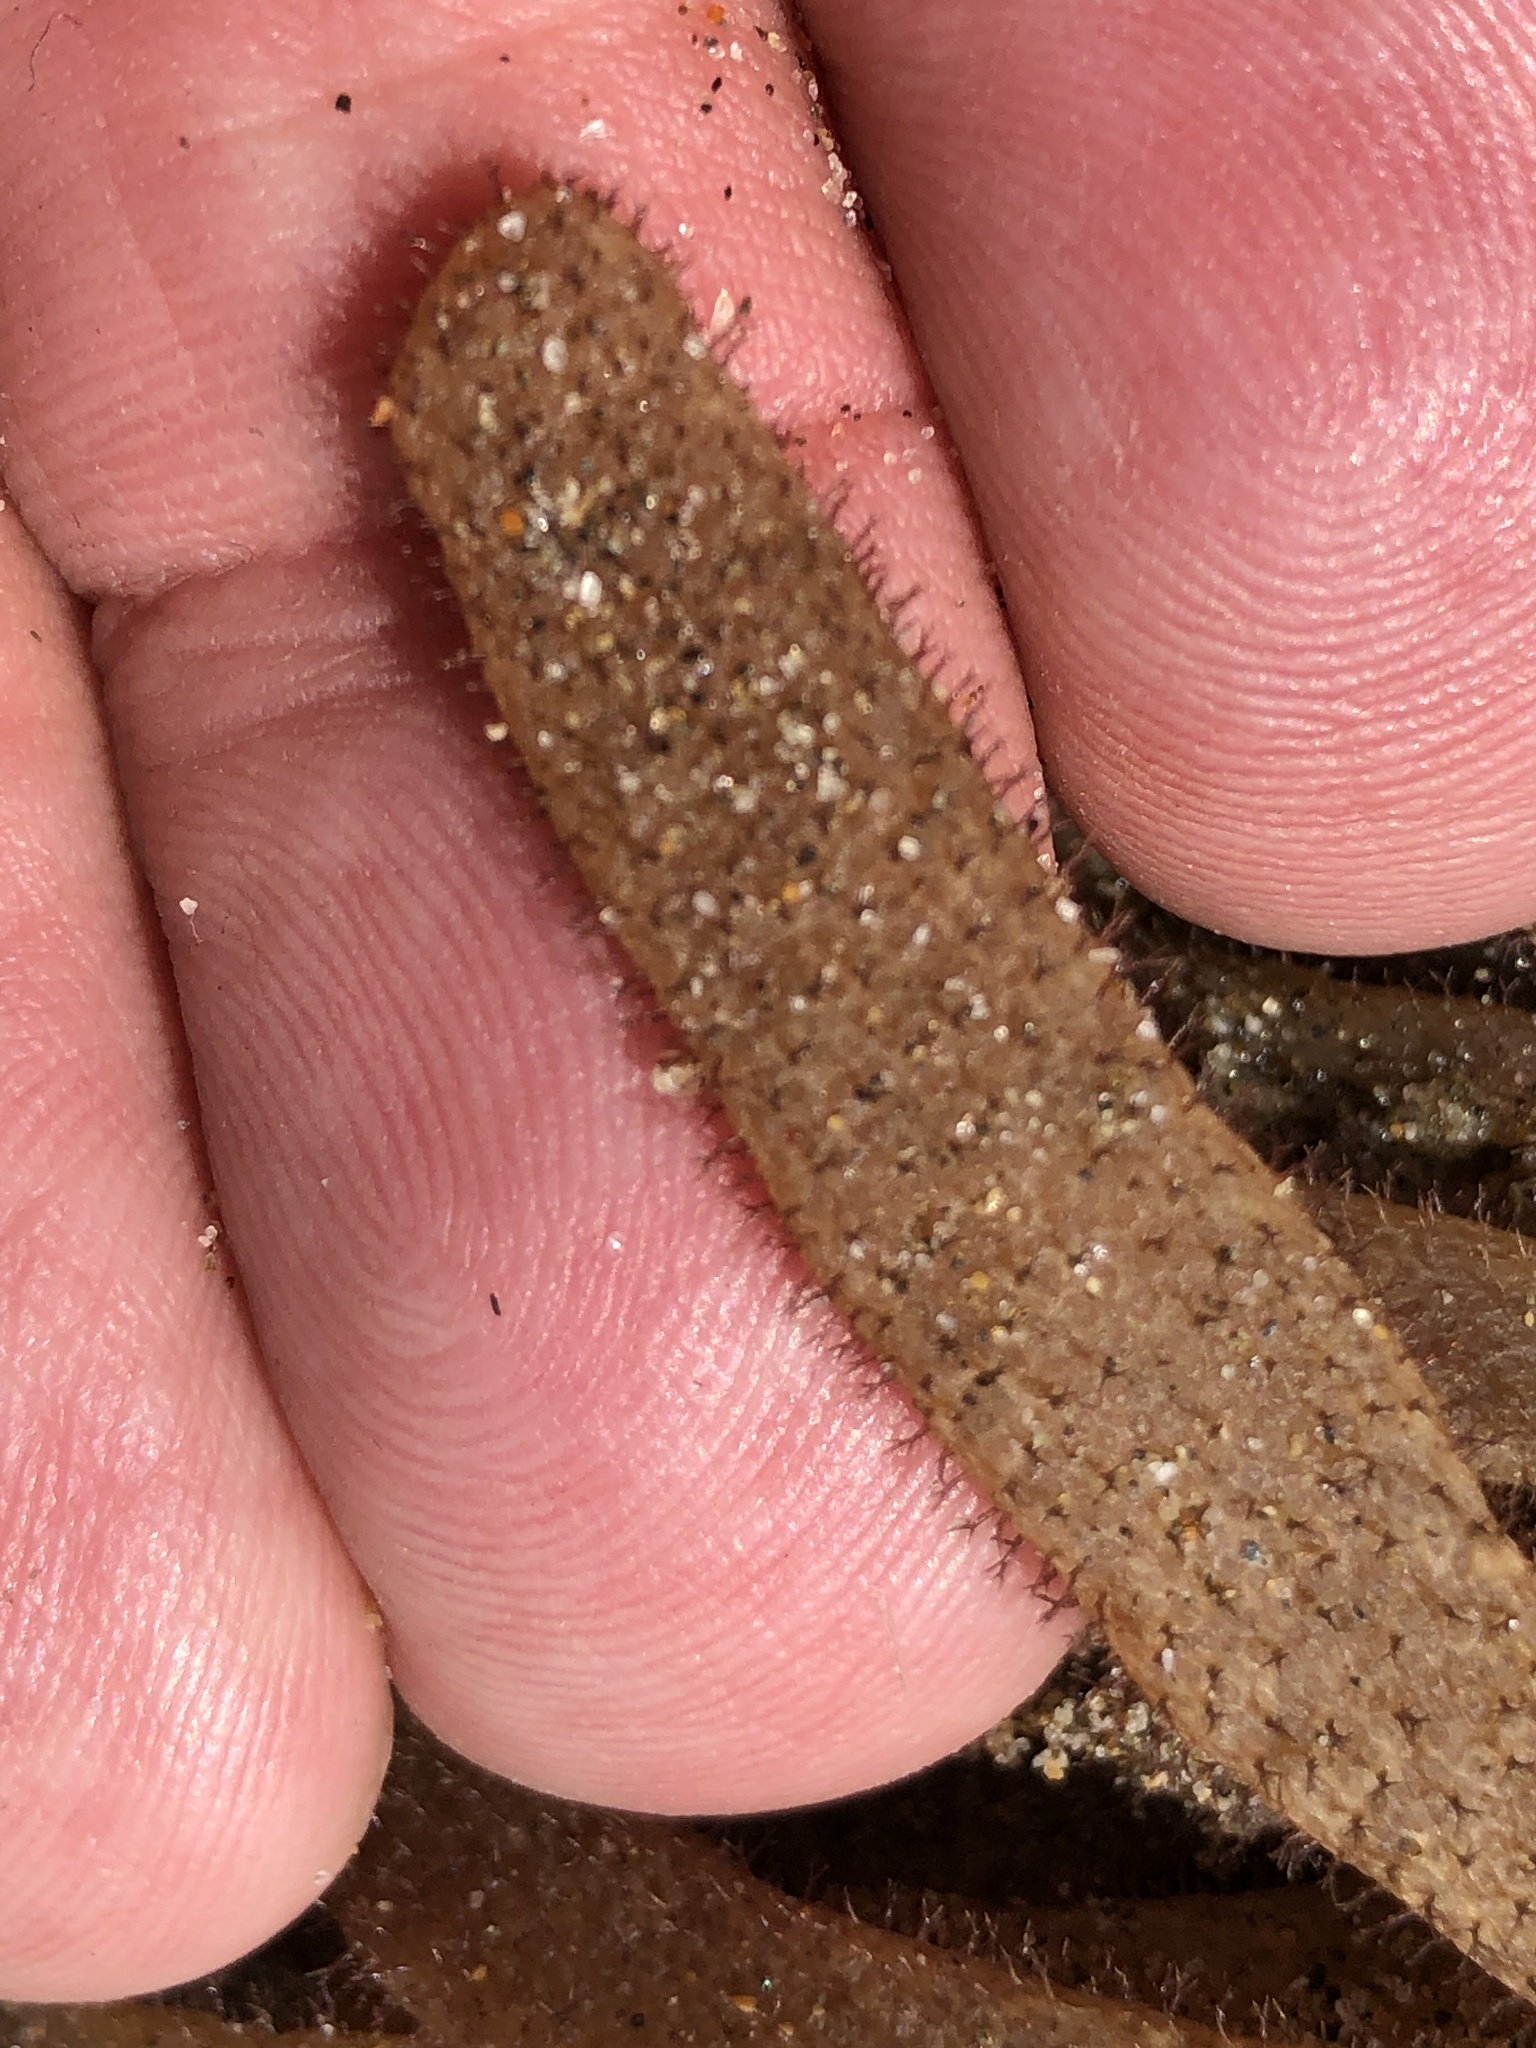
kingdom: Animalia
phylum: Bryozoa
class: Gymnolaemata
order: Ctenostomatida
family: Flustrellidridae
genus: Flustrellidra
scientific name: Flustrellidra corniculata
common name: Spiny leather bryozoan
